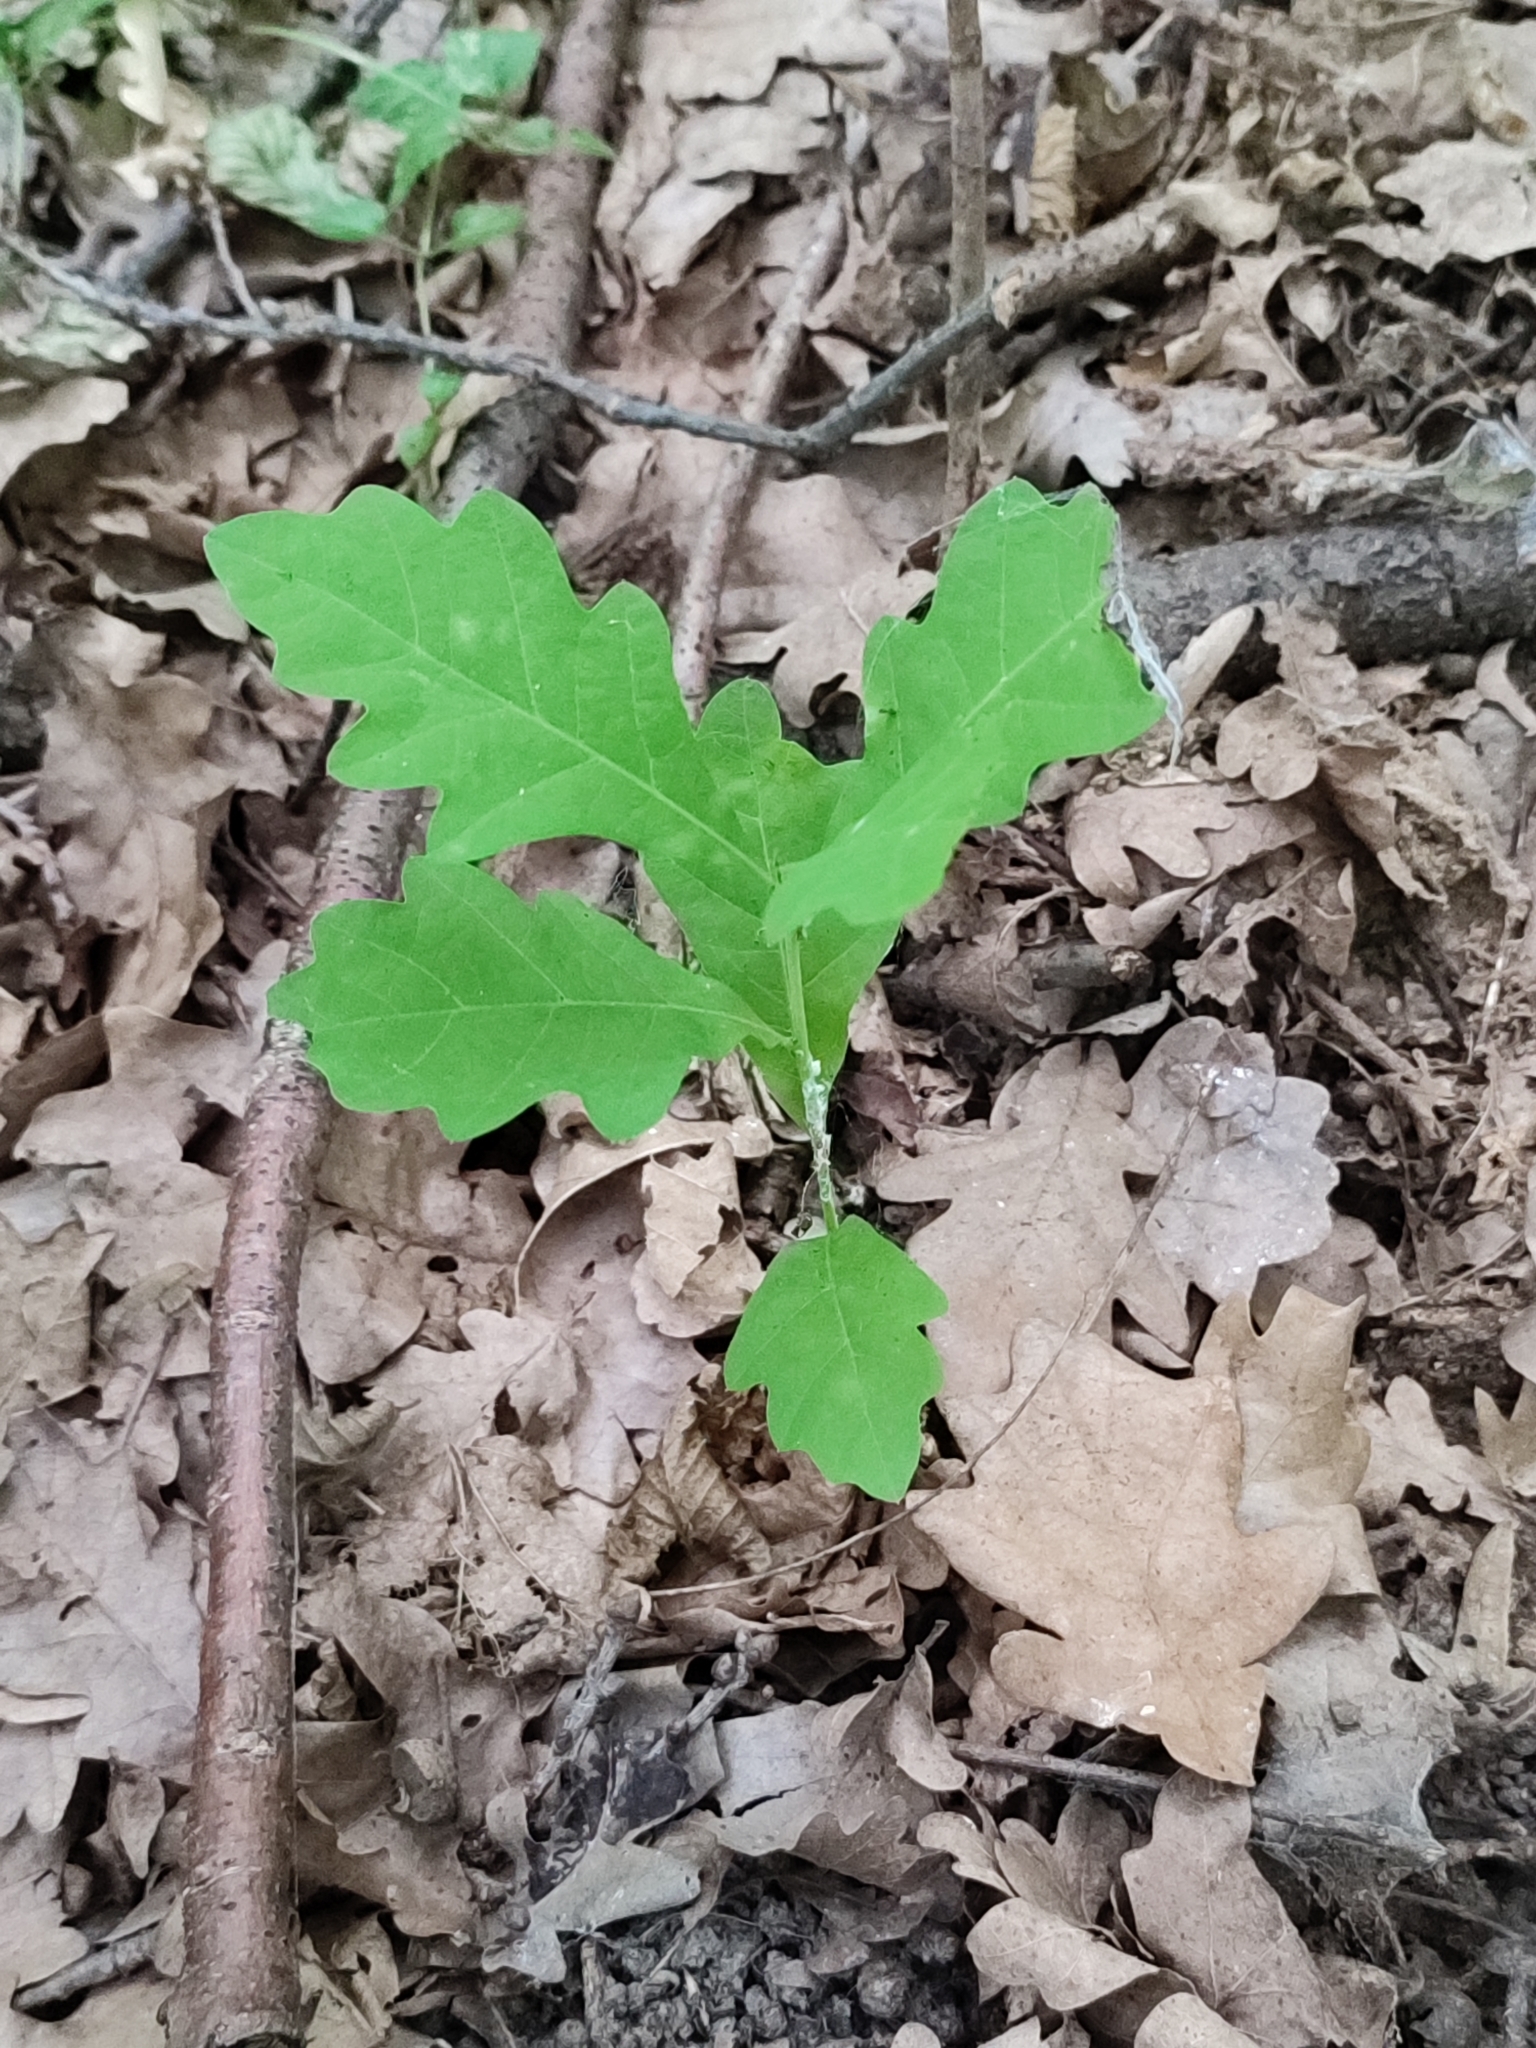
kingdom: Plantae
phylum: Tracheophyta
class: Magnoliopsida
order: Fagales
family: Fagaceae
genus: Quercus
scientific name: Quercus robur
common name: Pedunculate oak
